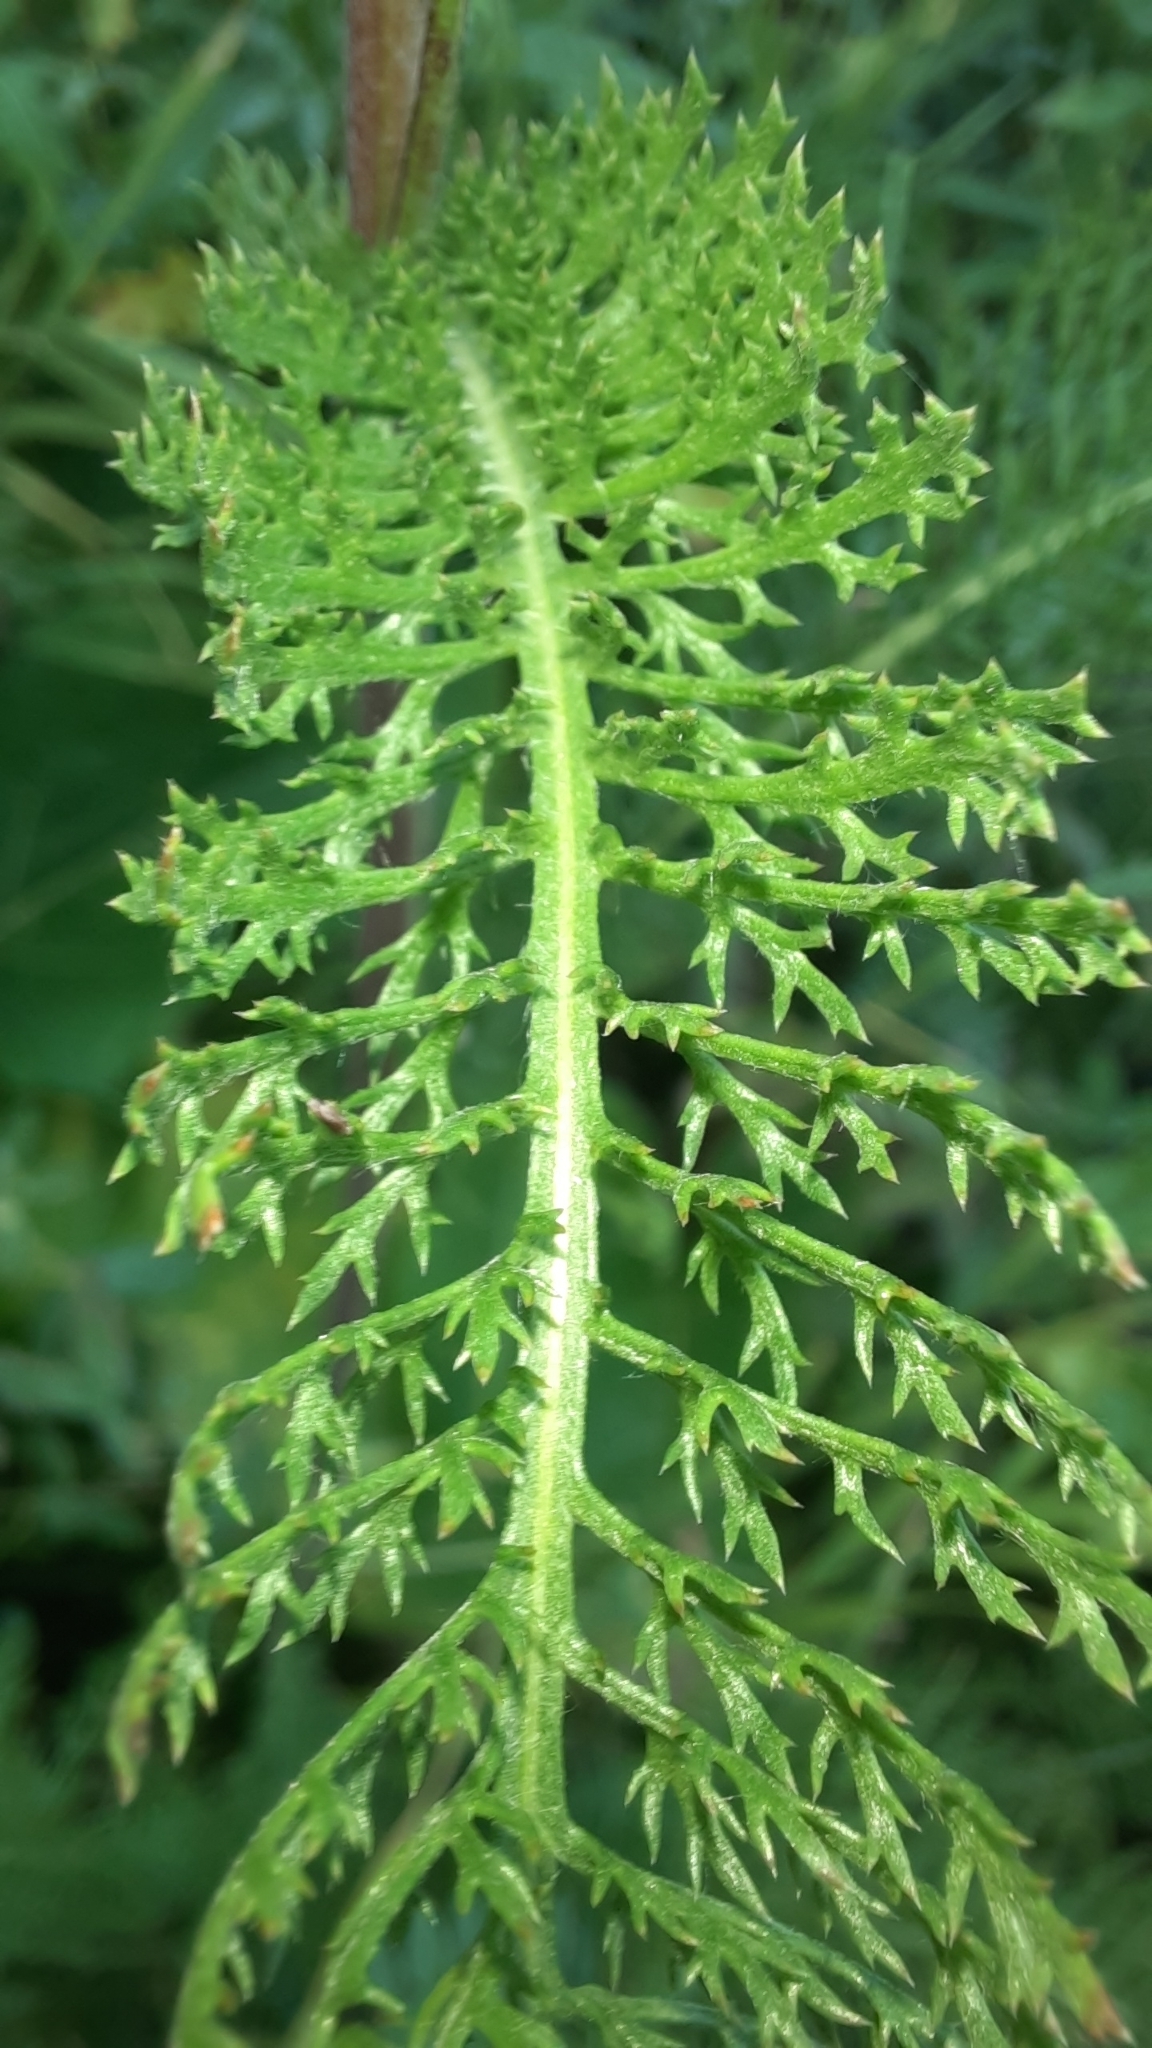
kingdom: Plantae
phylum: Tracheophyta
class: Magnoliopsida
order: Asterales
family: Asteraceae
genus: Achillea
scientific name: Achillea millefolium
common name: Yarrow
